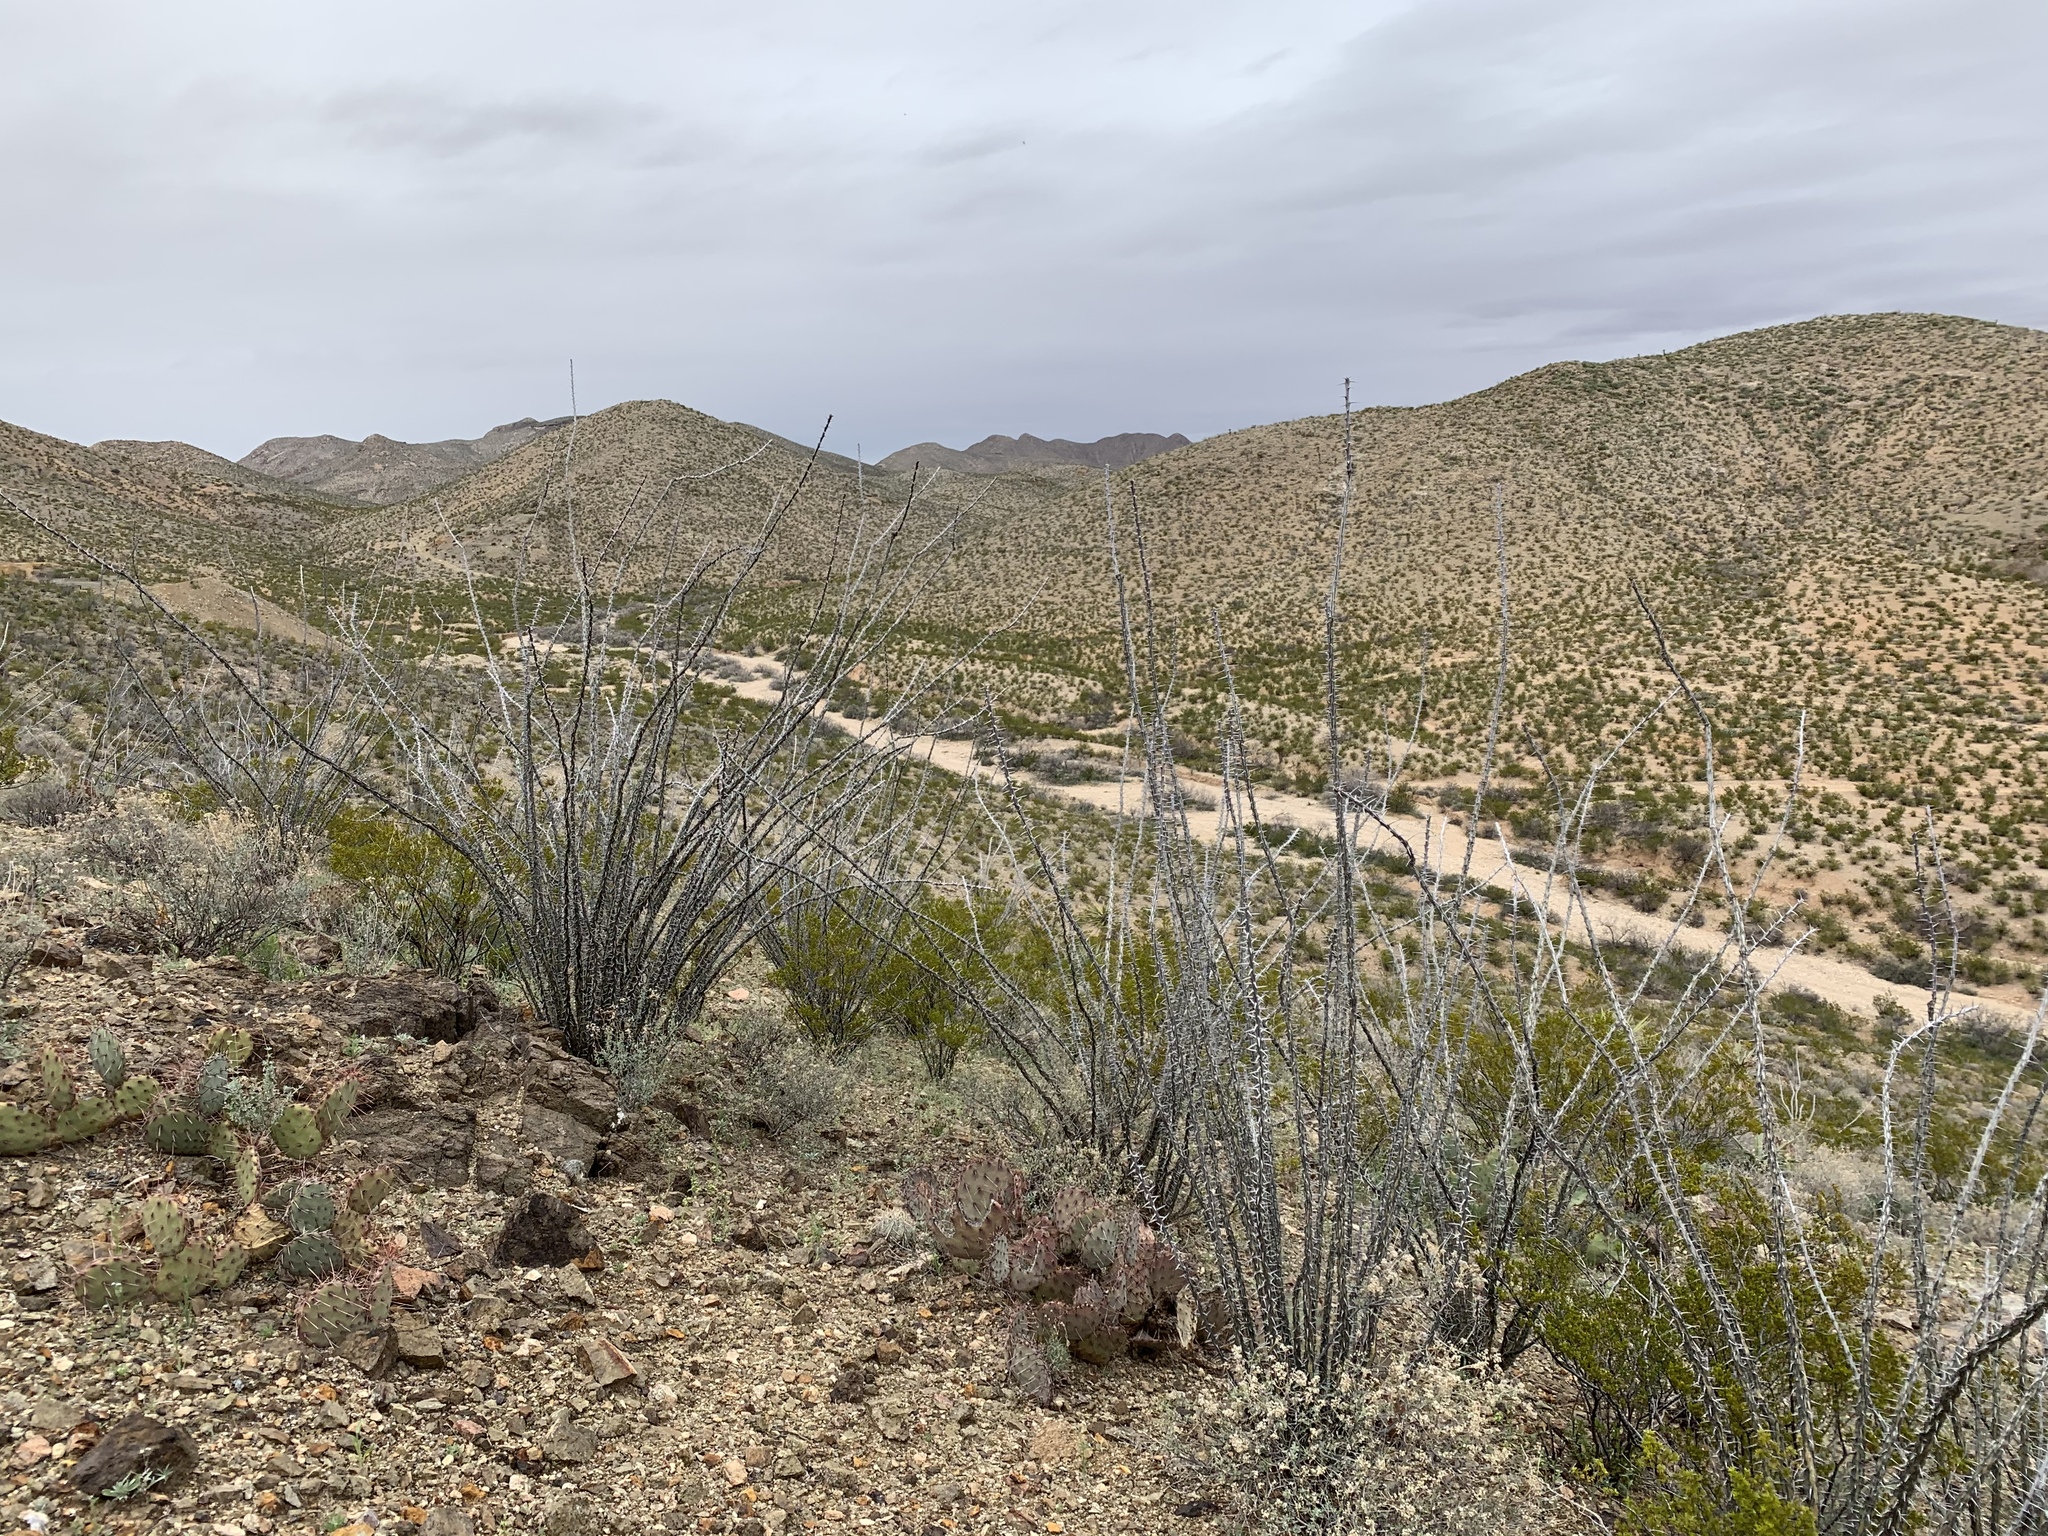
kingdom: Plantae
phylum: Tracheophyta
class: Magnoliopsida
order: Ericales
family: Fouquieriaceae
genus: Fouquieria
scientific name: Fouquieria splendens
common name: Vine-cactus
